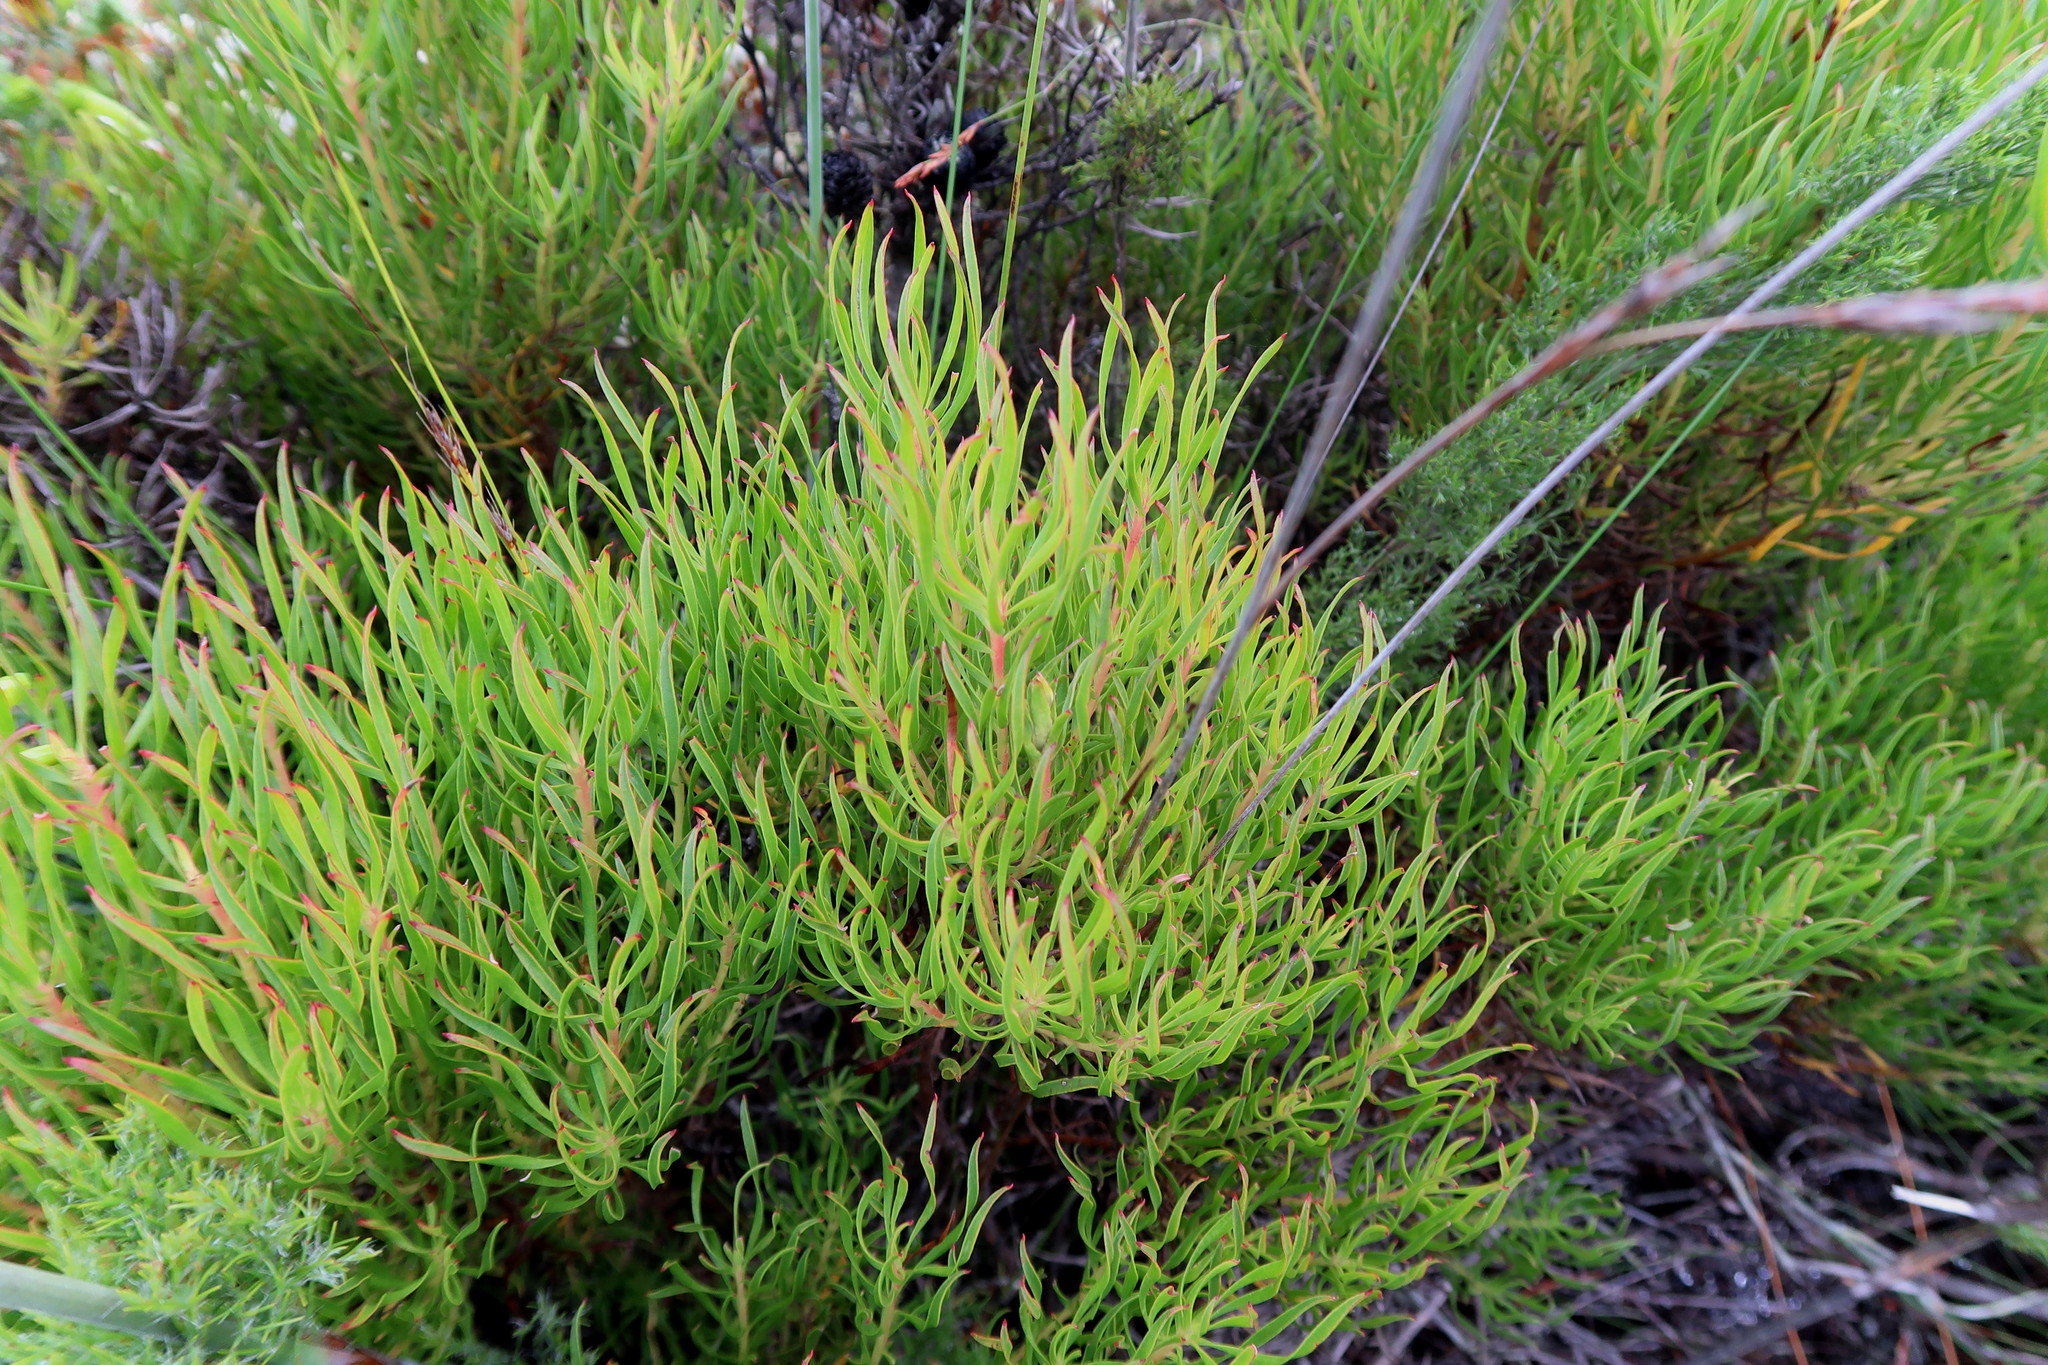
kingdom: Plantae
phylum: Tracheophyta
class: Magnoliopsida
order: Proteales
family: Proteaceae
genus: Leucadendron
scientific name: Leucadendron spissifolium
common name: Spear-leaf conebush
